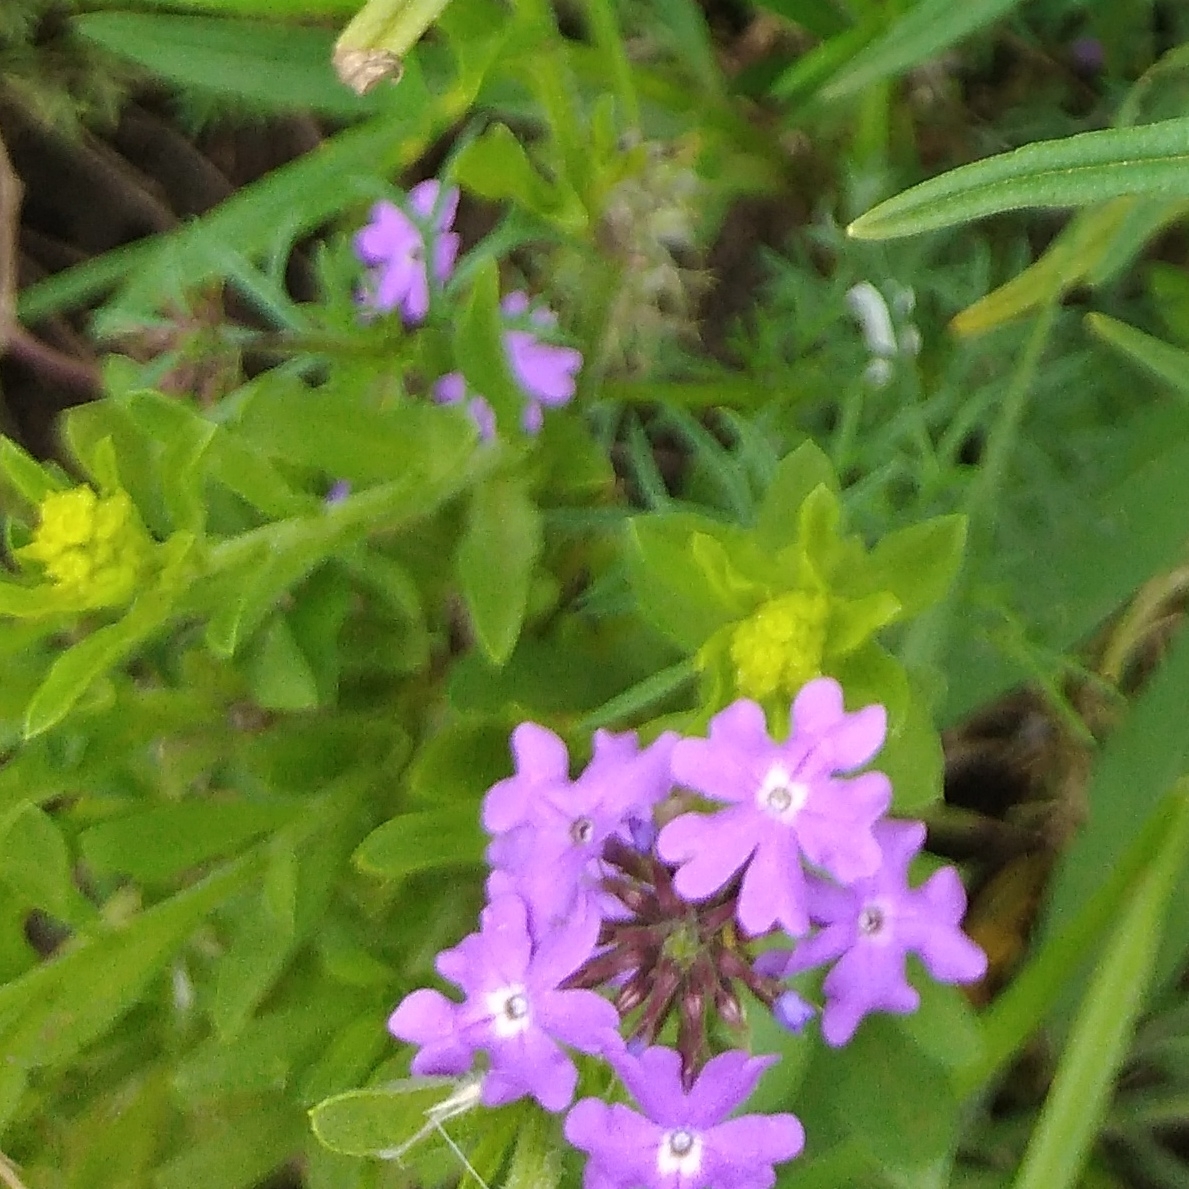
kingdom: Plantae
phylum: Tracheophyta
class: Magnoliopsida
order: Lamiales
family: Verbenaceae
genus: Verbena
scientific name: Verbena aristigera
